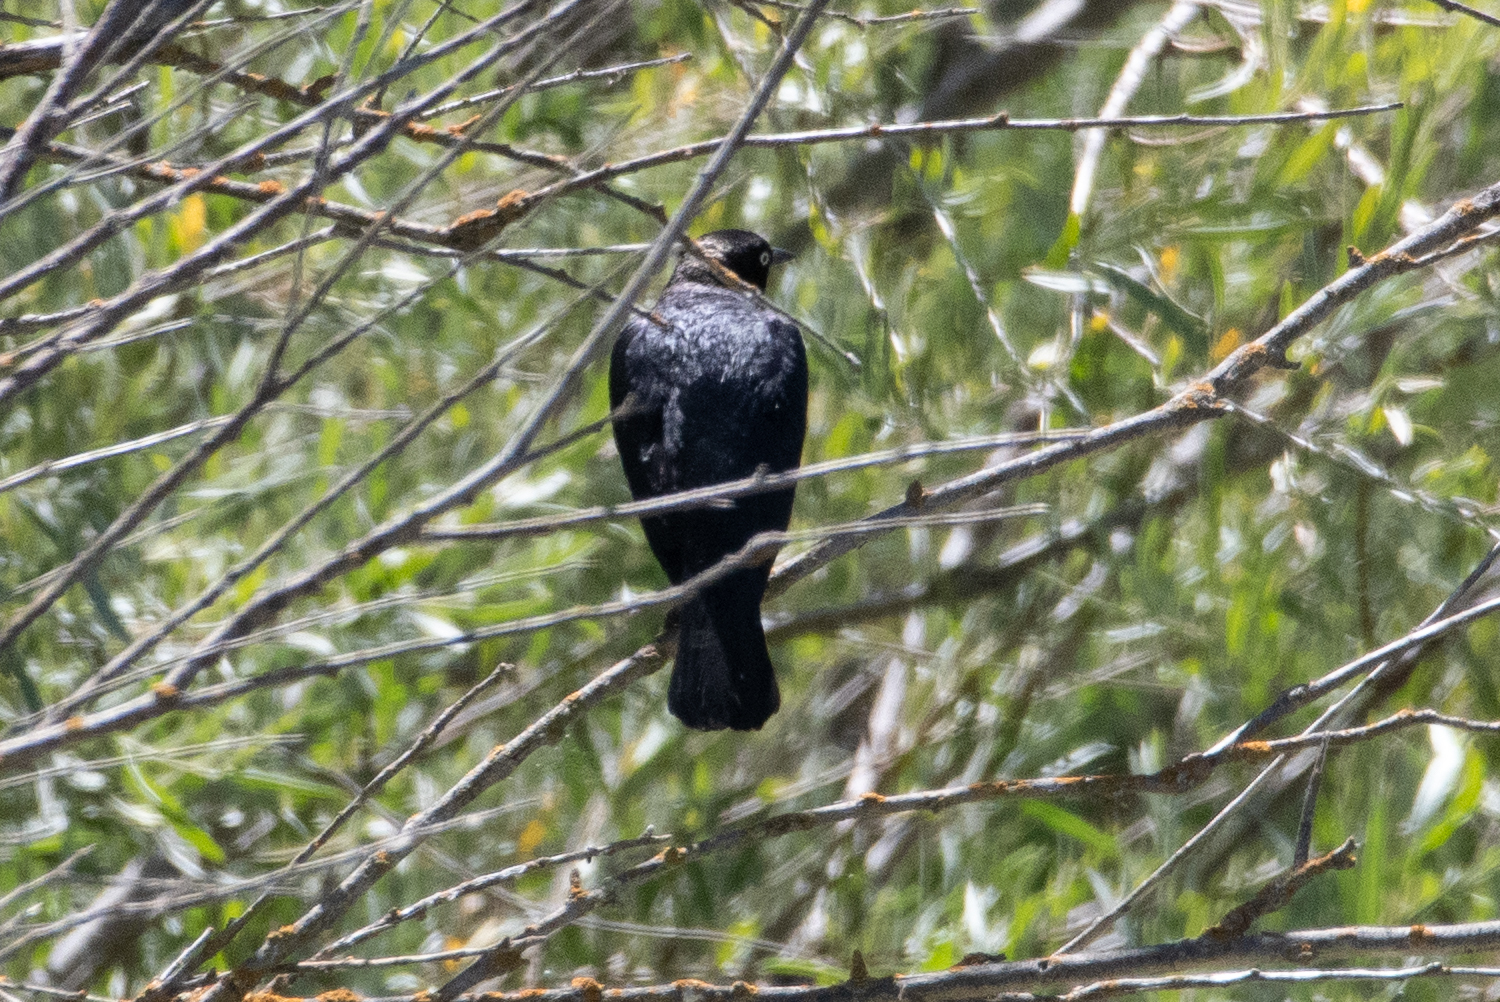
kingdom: Animalia
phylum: Chordata
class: Aves
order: Passeriformes
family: Icteridae
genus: Euphagus
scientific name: Euphagus cyanocephalus
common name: Brewer's blackbird
